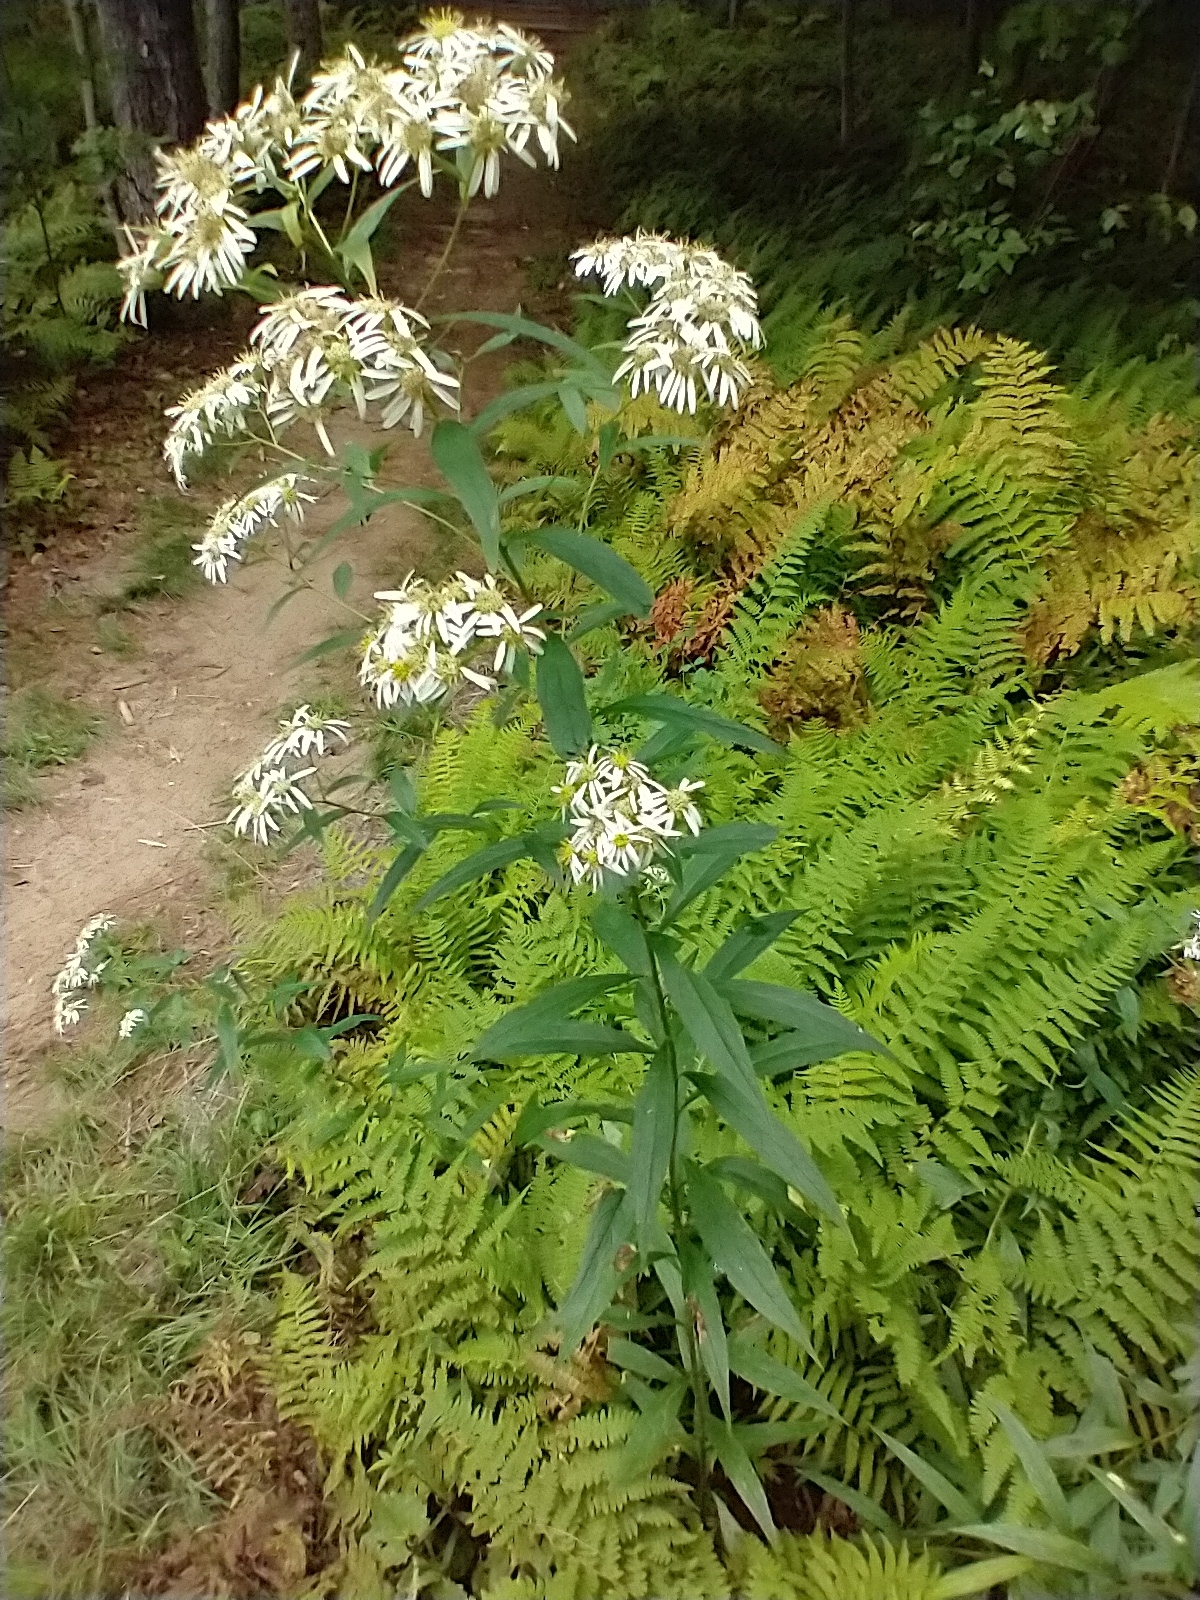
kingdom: Plantae
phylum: Tracheophyta
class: Magnoliopsida
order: Asterales
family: Asteraceae
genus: Doellingeria
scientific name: Doellingeria umbellata
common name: Flat-top white aster
